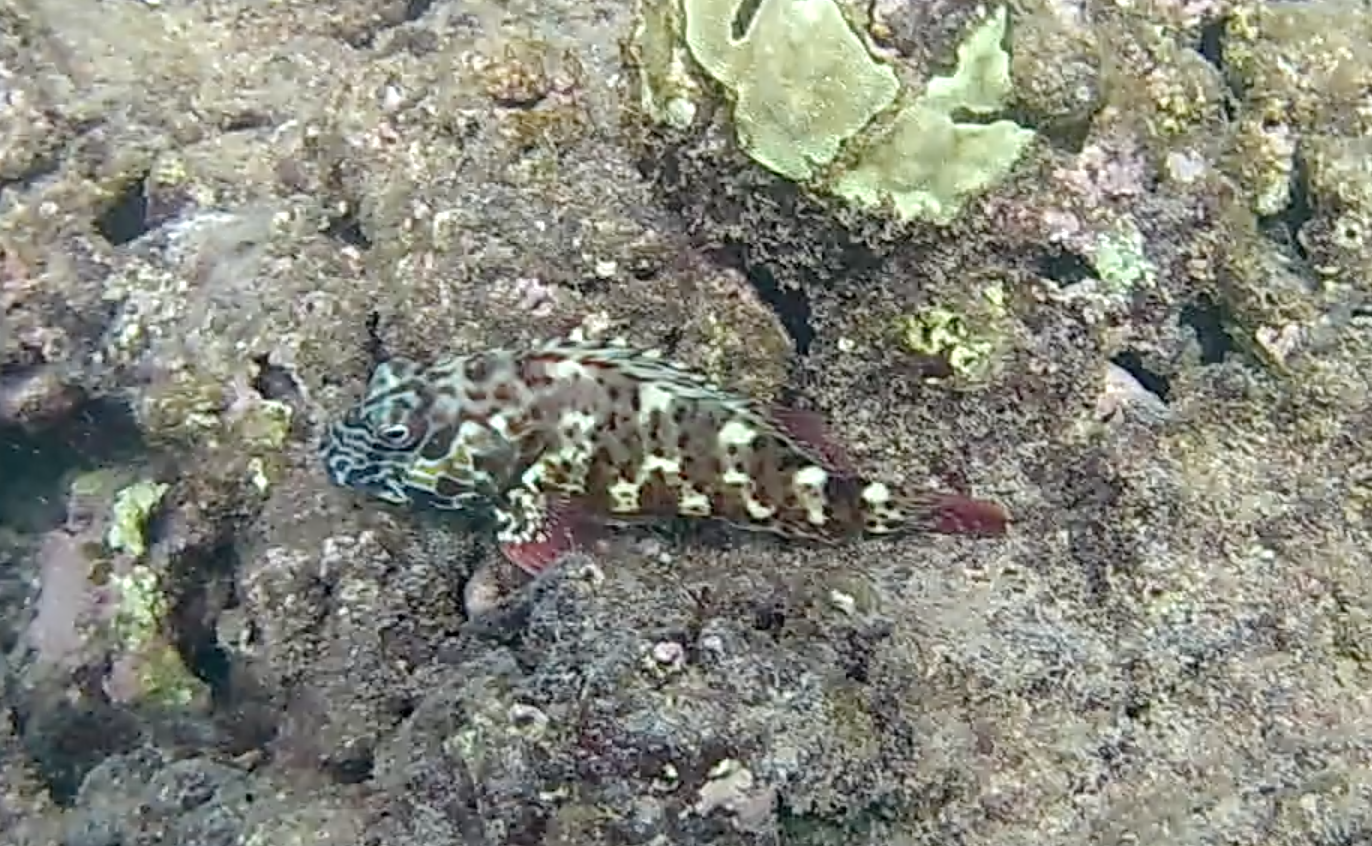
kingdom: Animalia
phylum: Chordata
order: Perciformes
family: Cirrhitidae
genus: Cirrhitus
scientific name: Cirrhitus pinnulatus
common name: Stocky hawkfish
